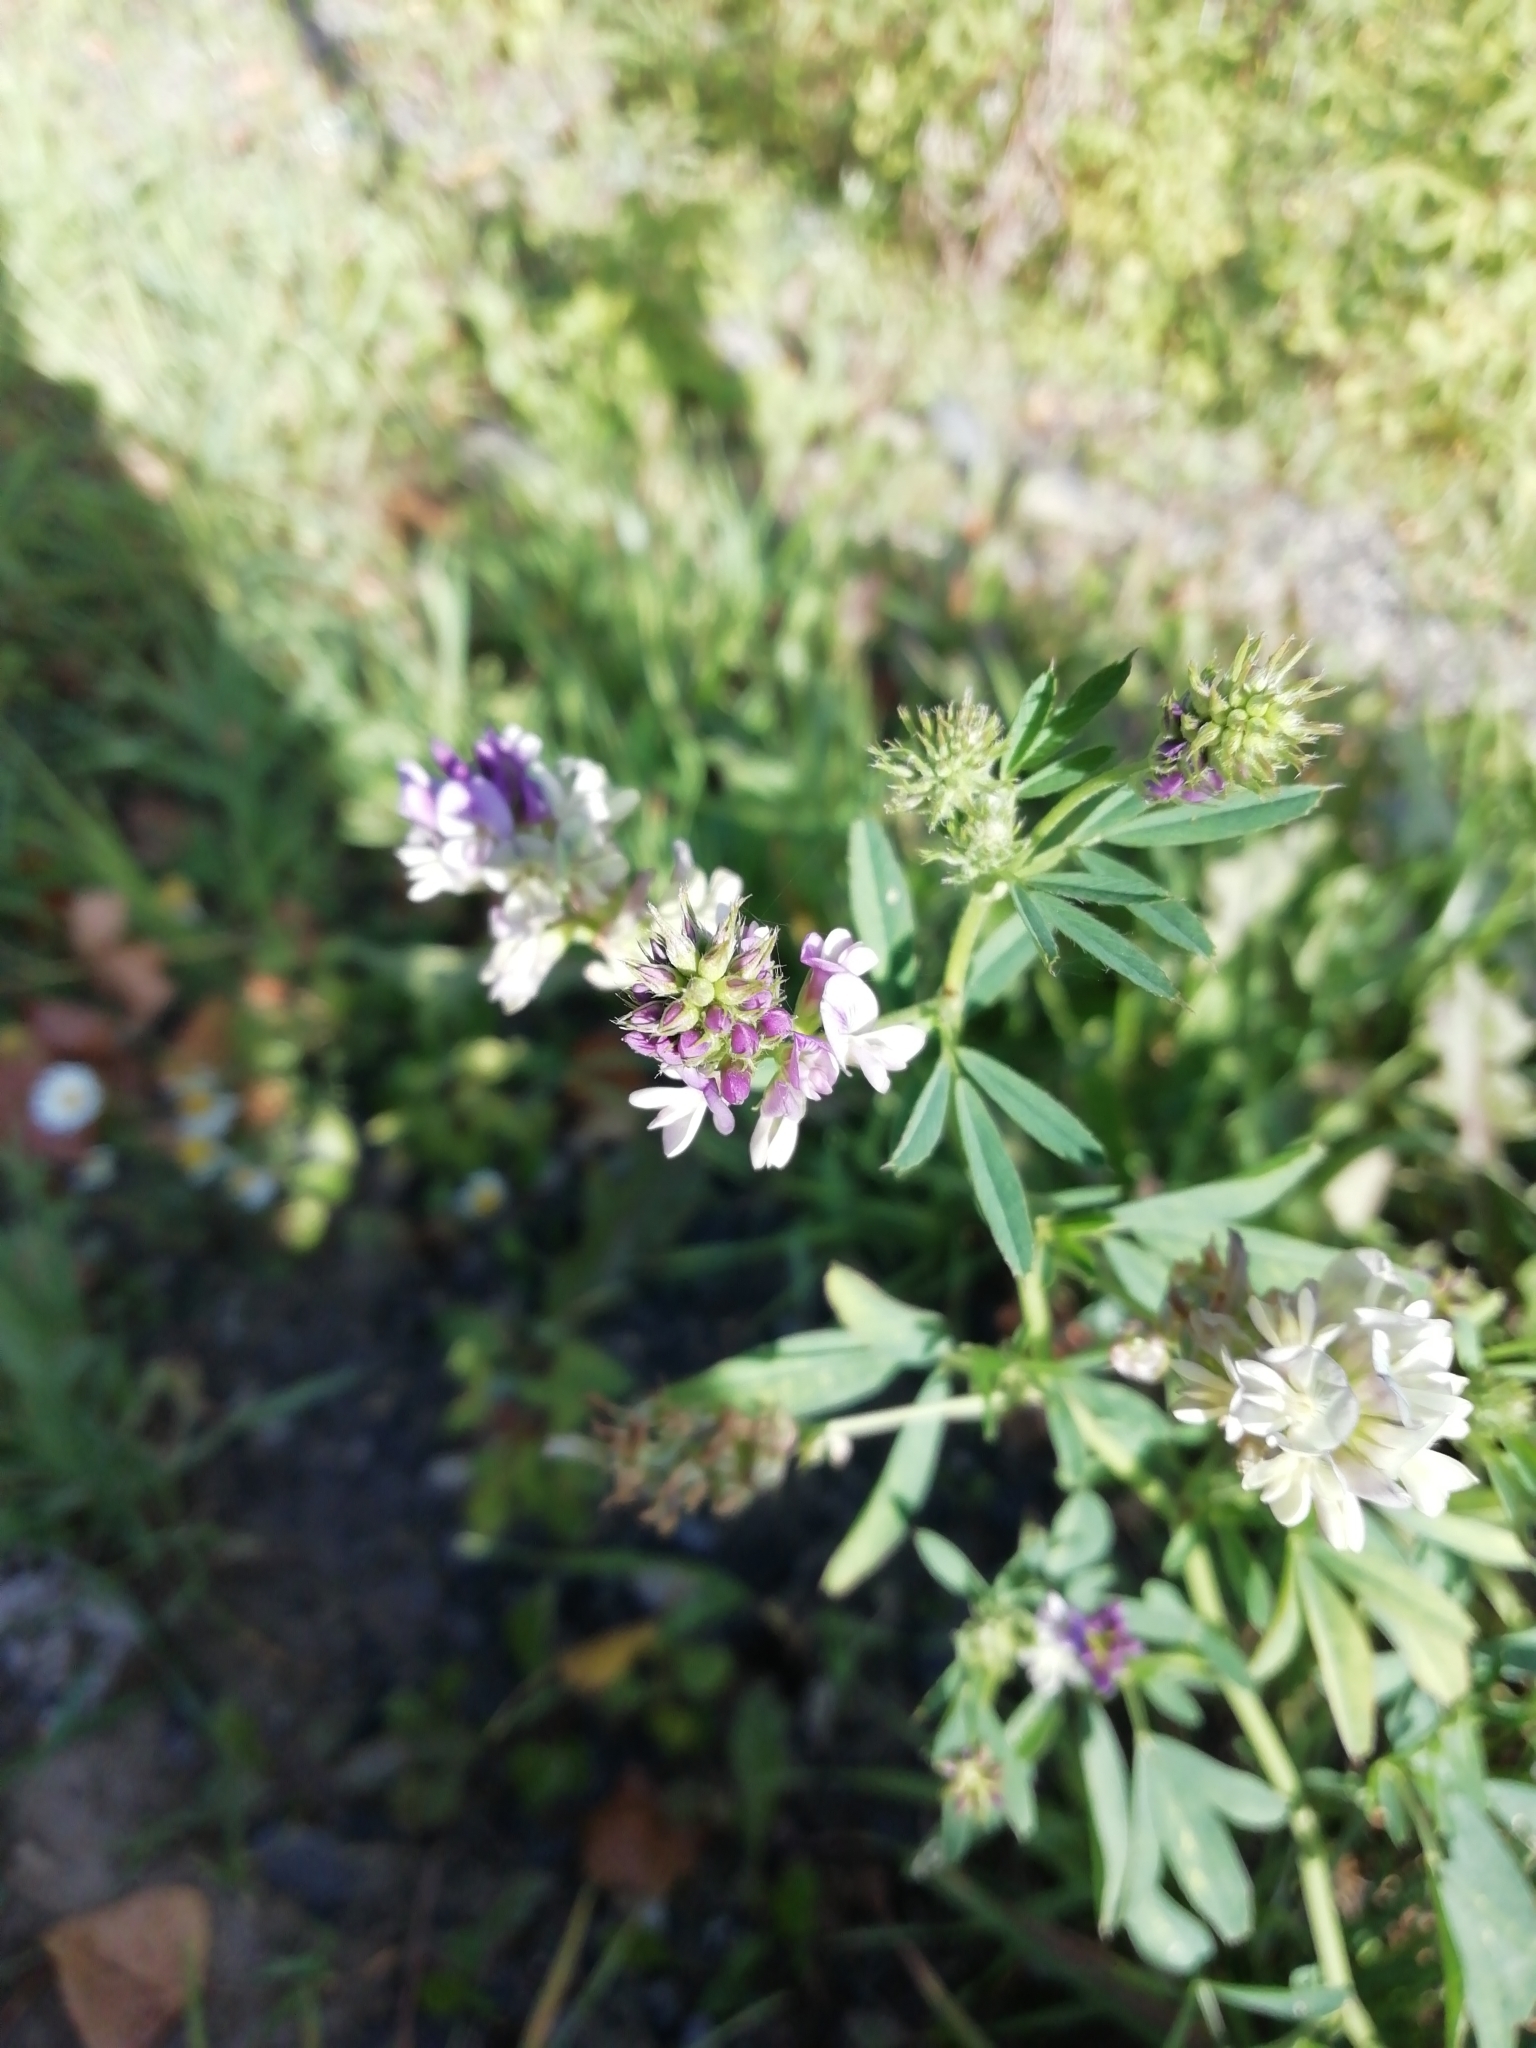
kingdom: Plantae
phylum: Tracheophyta
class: Magnoliopsida
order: Fabales
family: Fabaceae
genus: Medicago
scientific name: Medicago varia
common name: Sand lucerne
